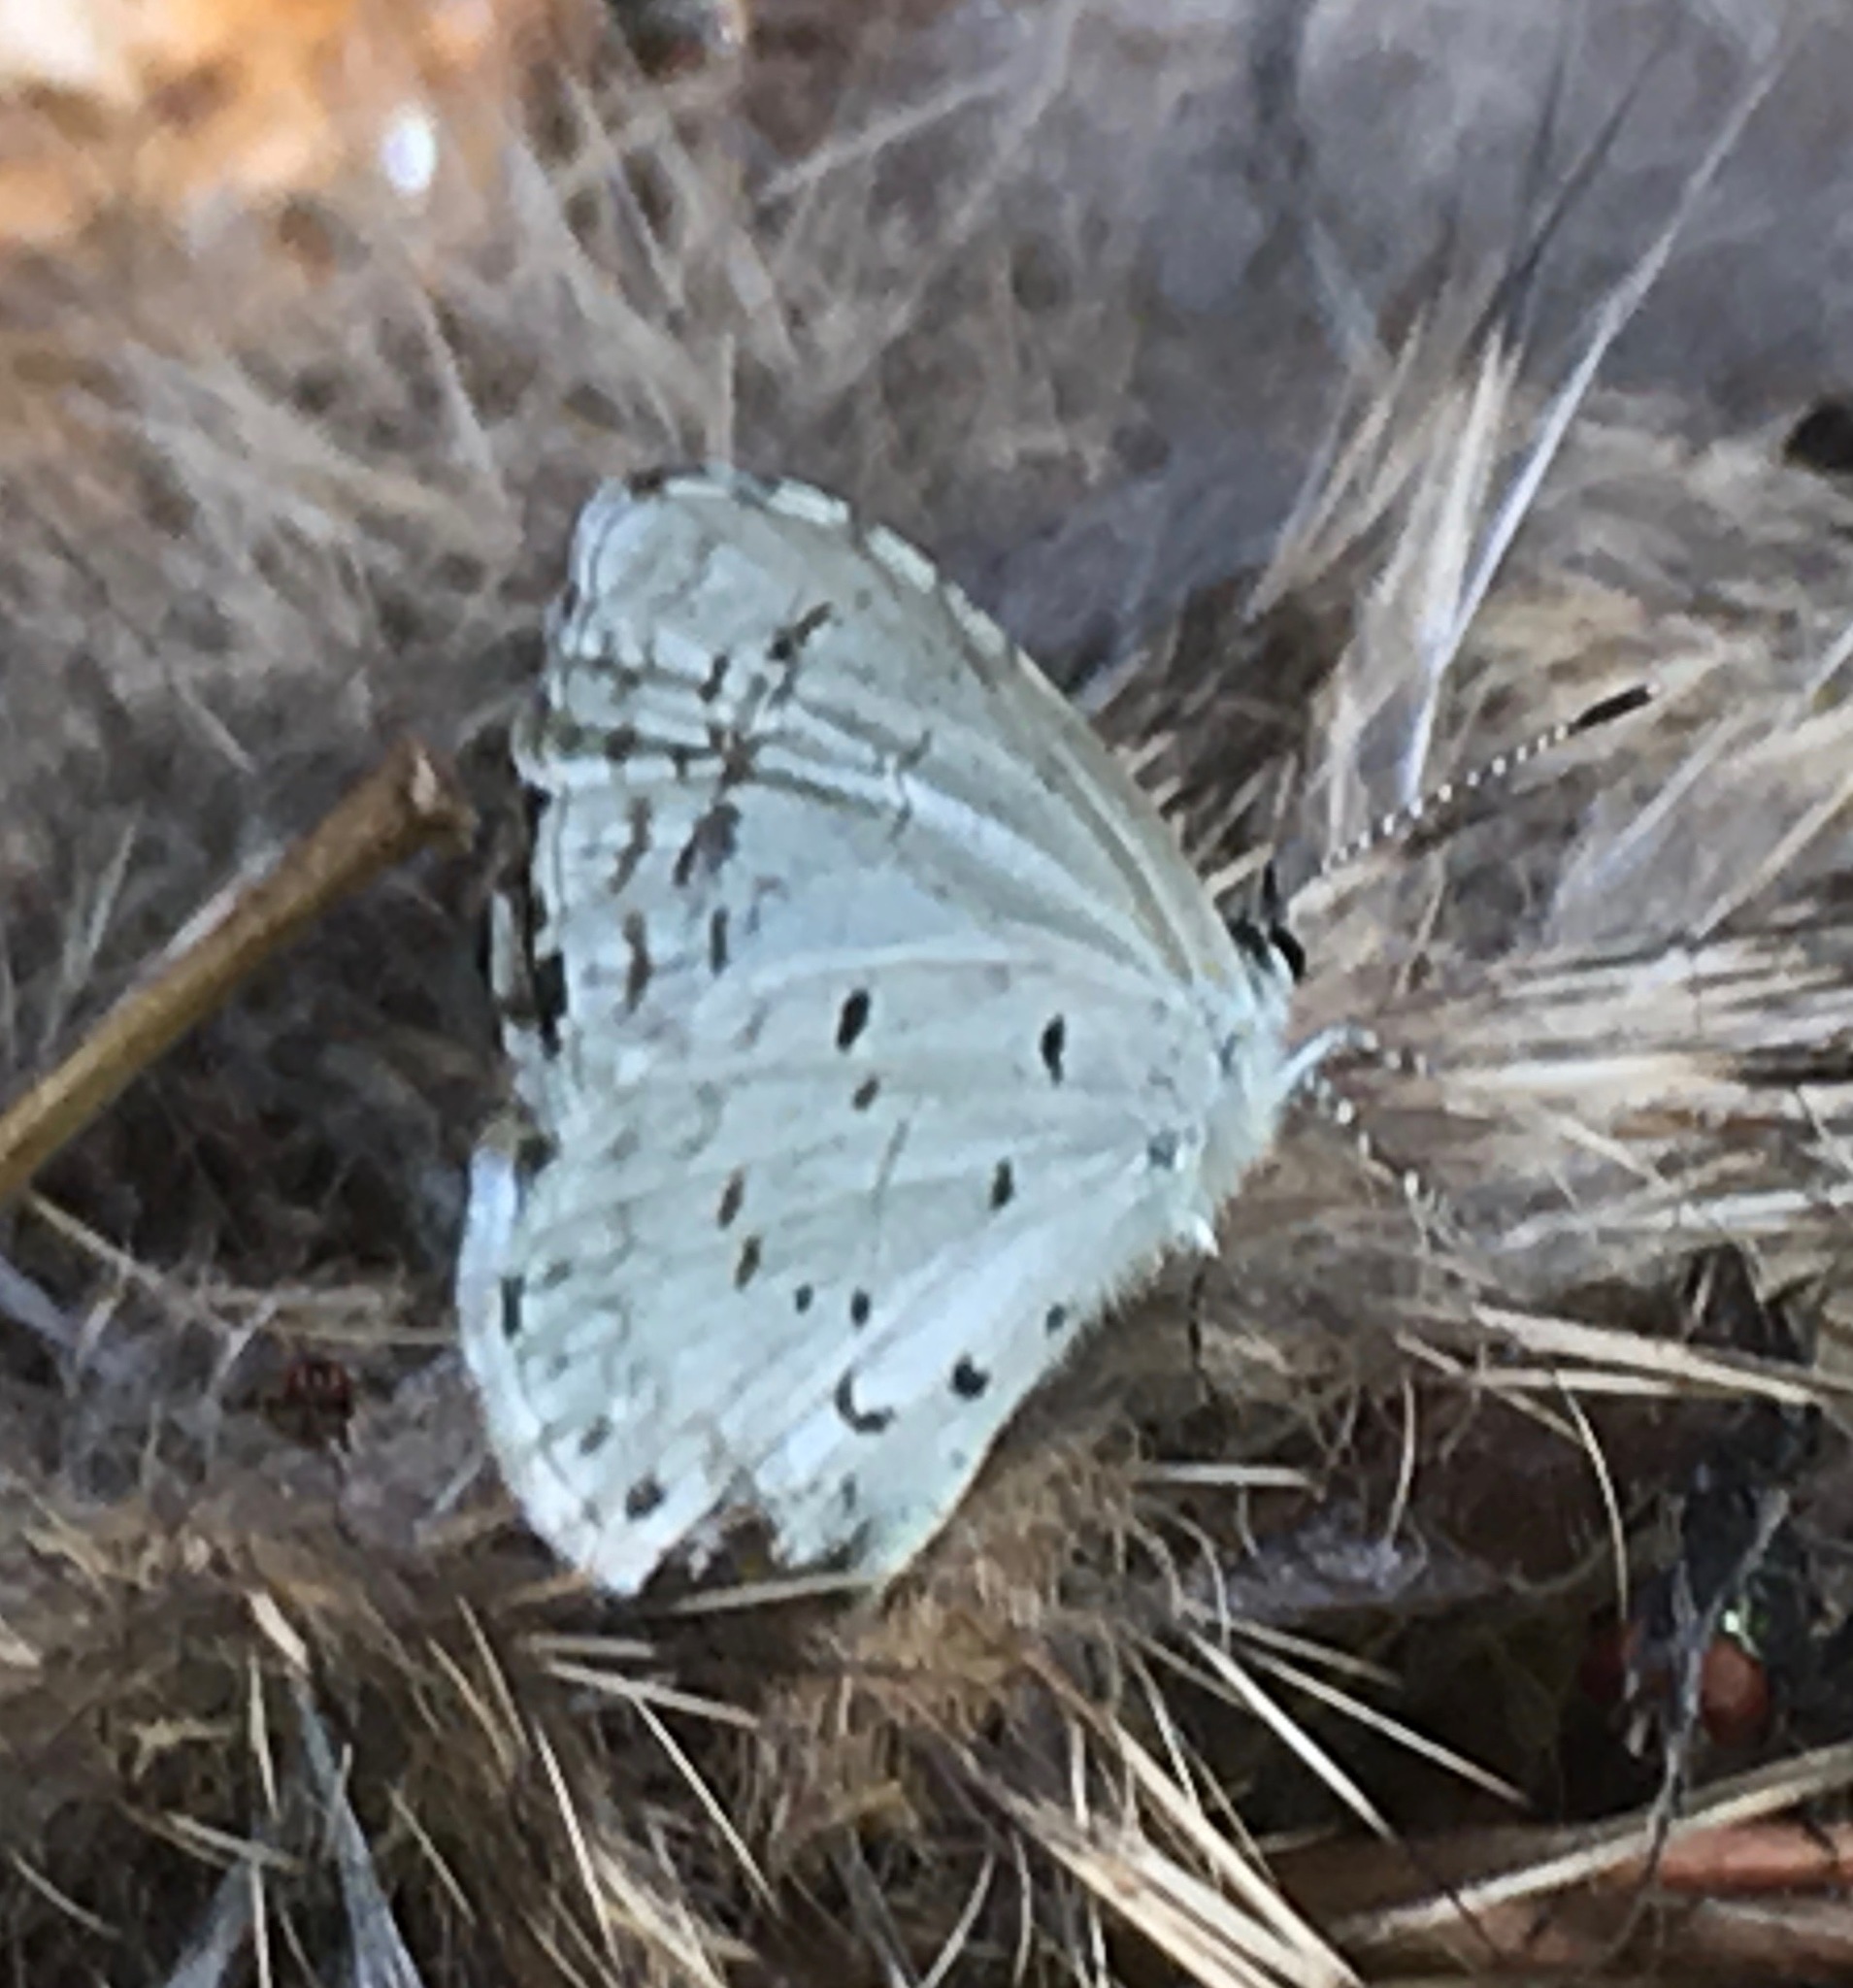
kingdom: Animalia
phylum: Arthropoda
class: Insecta
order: Lepidoptera
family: Lycaenidae
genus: Cyaniris
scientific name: Cyaniris neglecta
